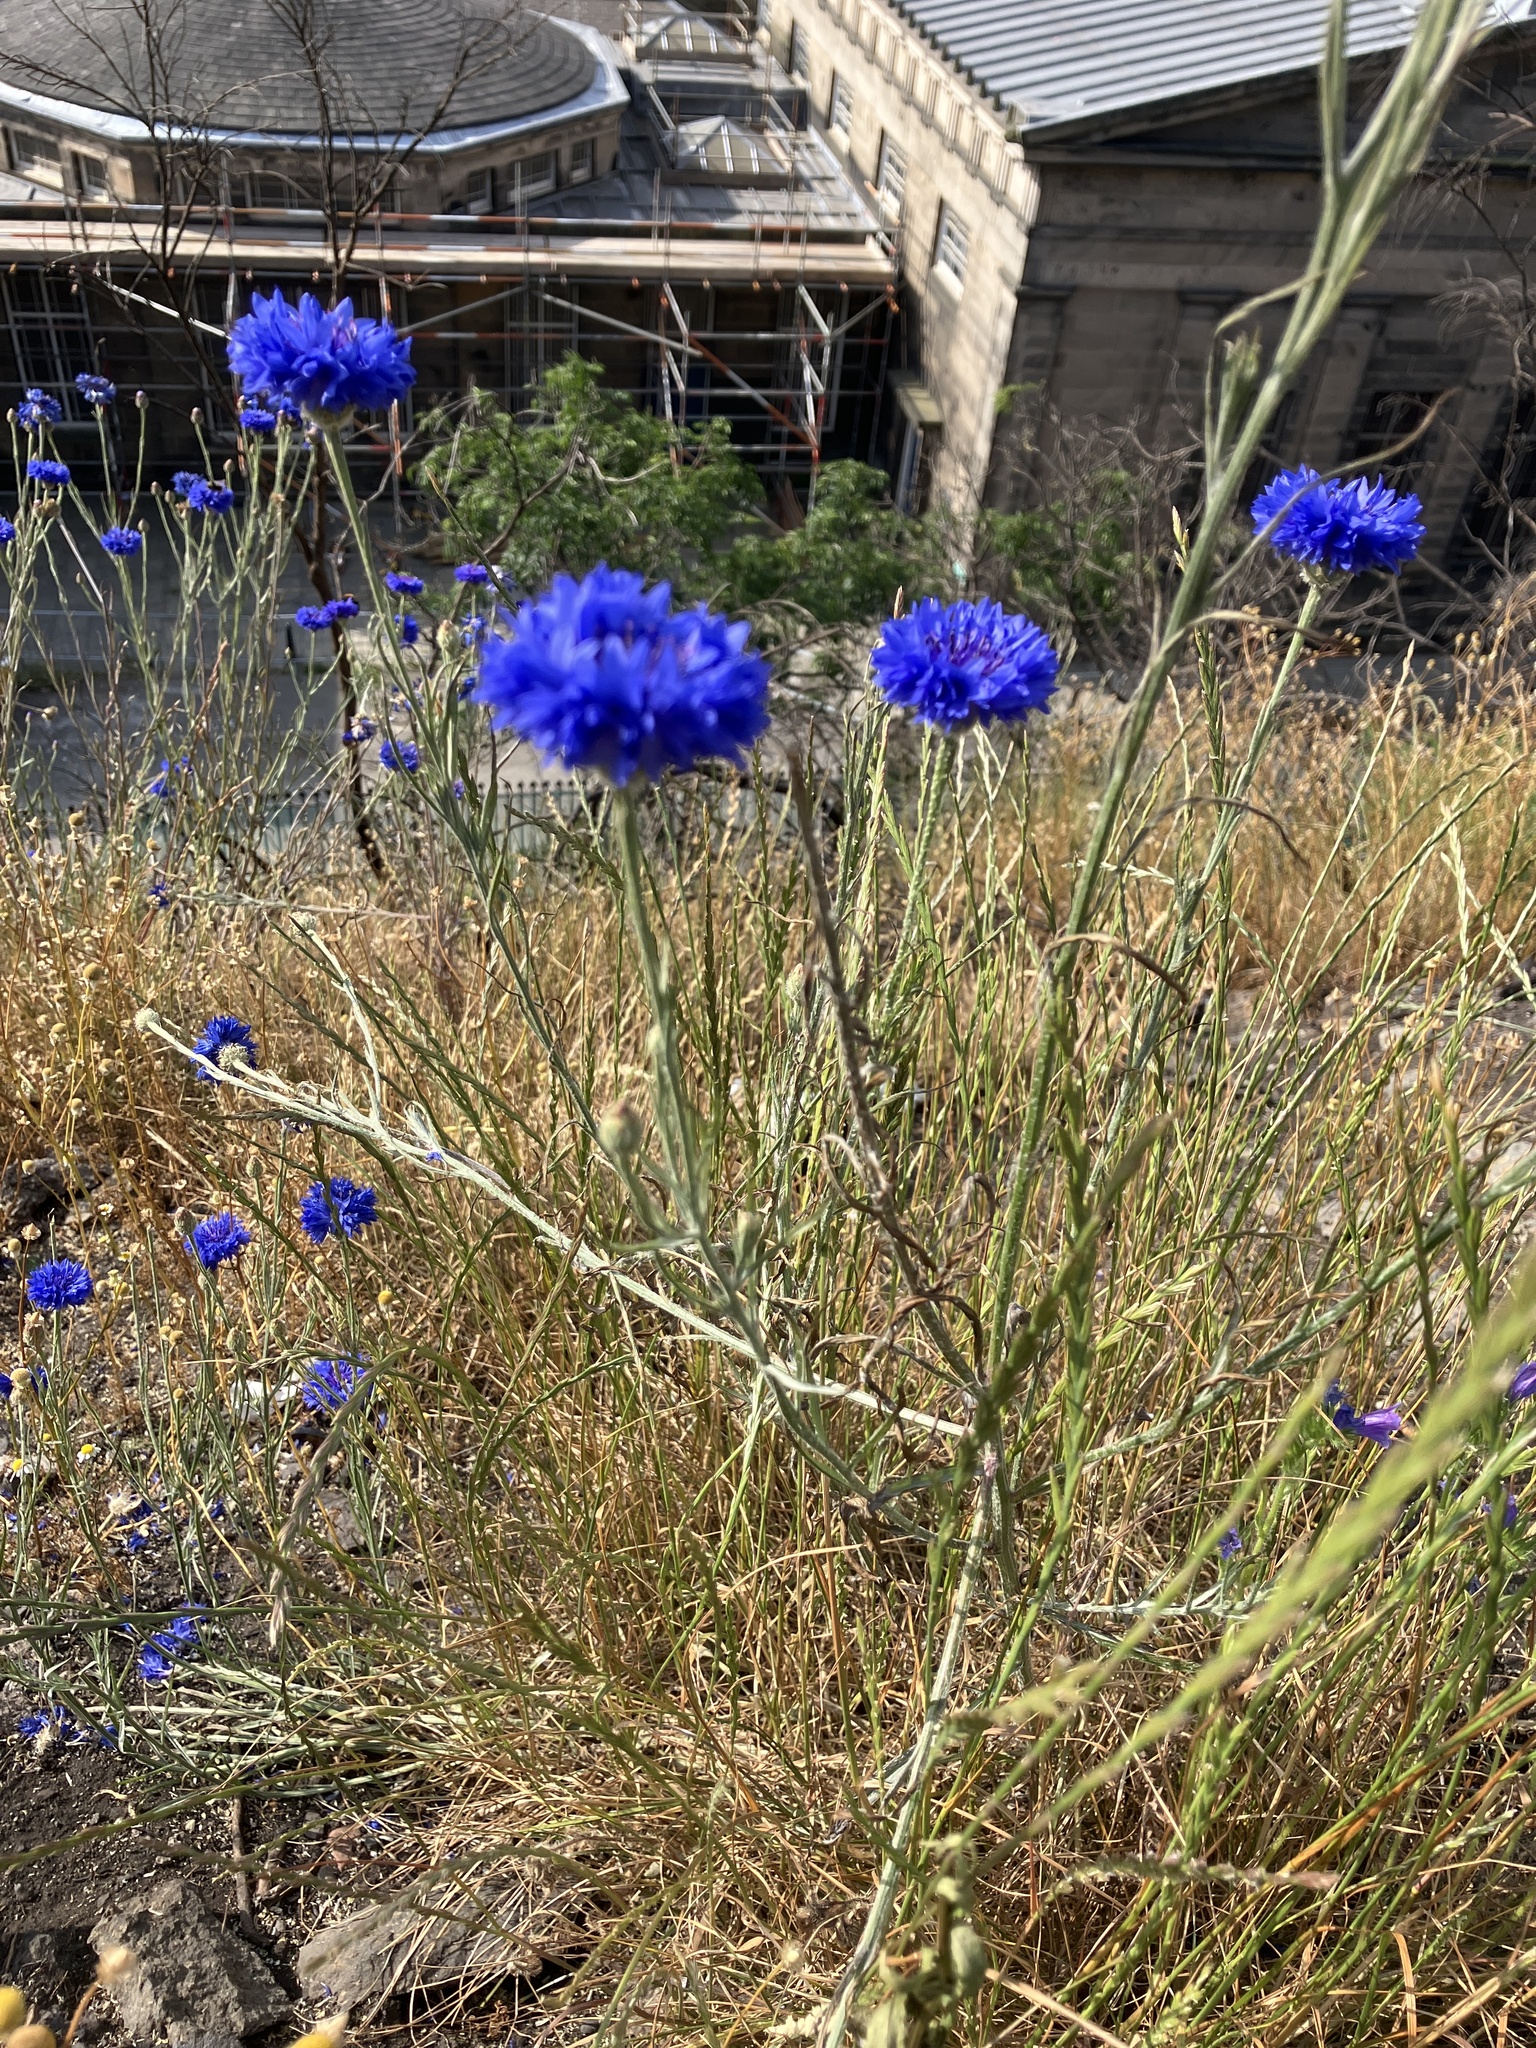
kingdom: Plantae
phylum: Tracheophyta
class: Magnoliopsida
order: Asterales
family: Asteraceae
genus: Centaurea
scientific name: Centaurea cyanus
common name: Cornflower
